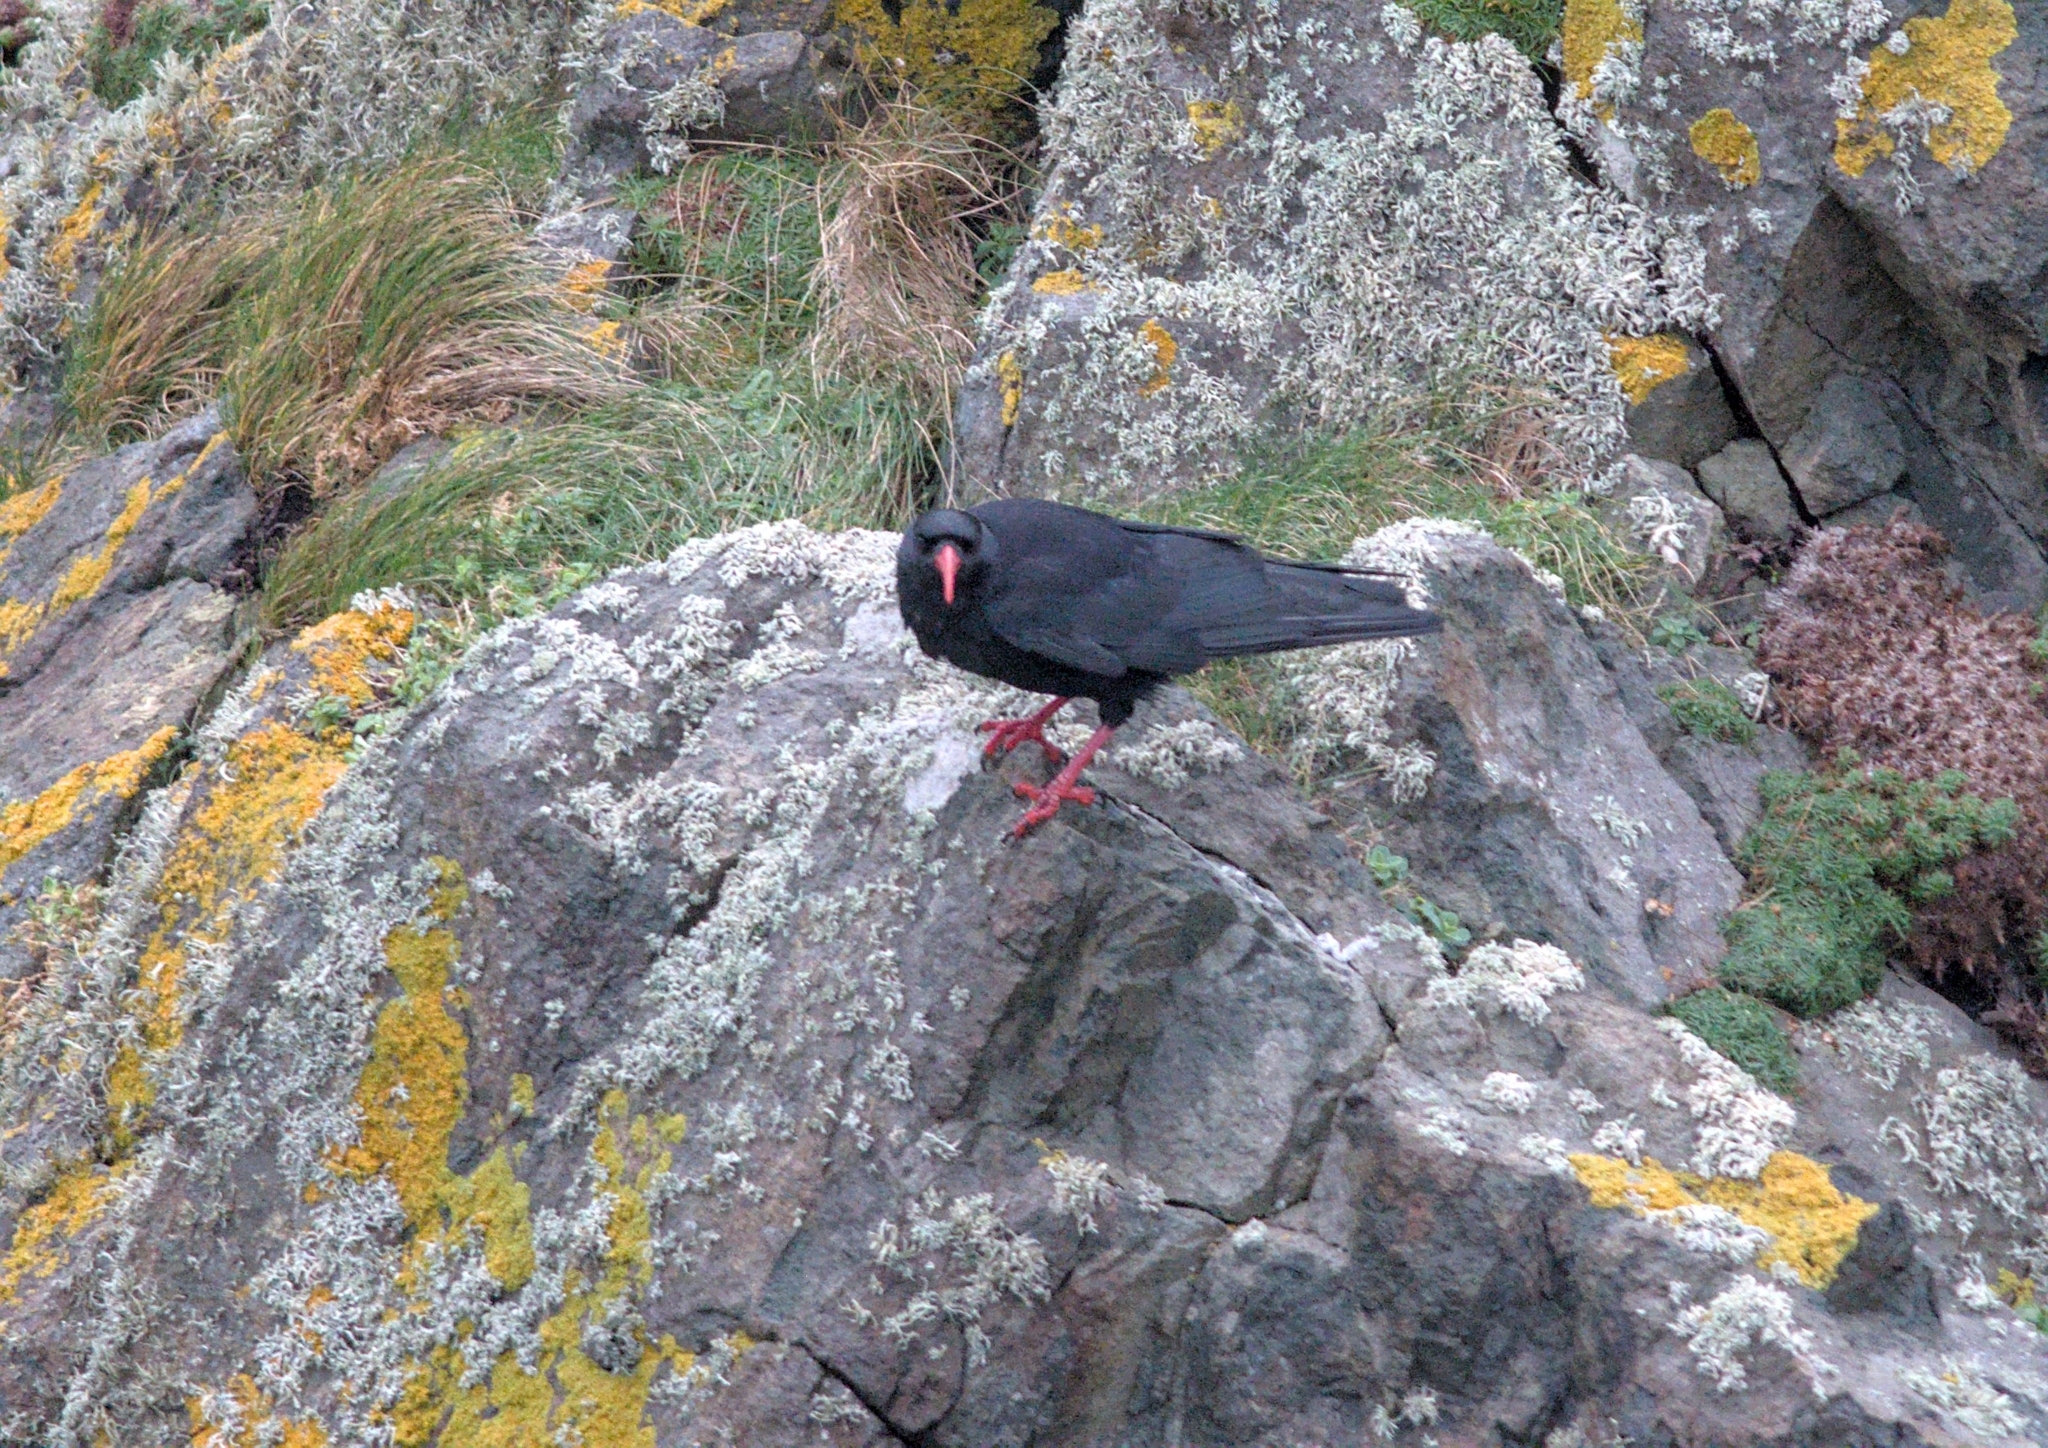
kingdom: Animalia
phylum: Chordata
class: Aves
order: Passeriformes
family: Corvidae
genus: Pyrrhocorax
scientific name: Pyrrhocorax pyrrhocorax
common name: Red-billed chough
